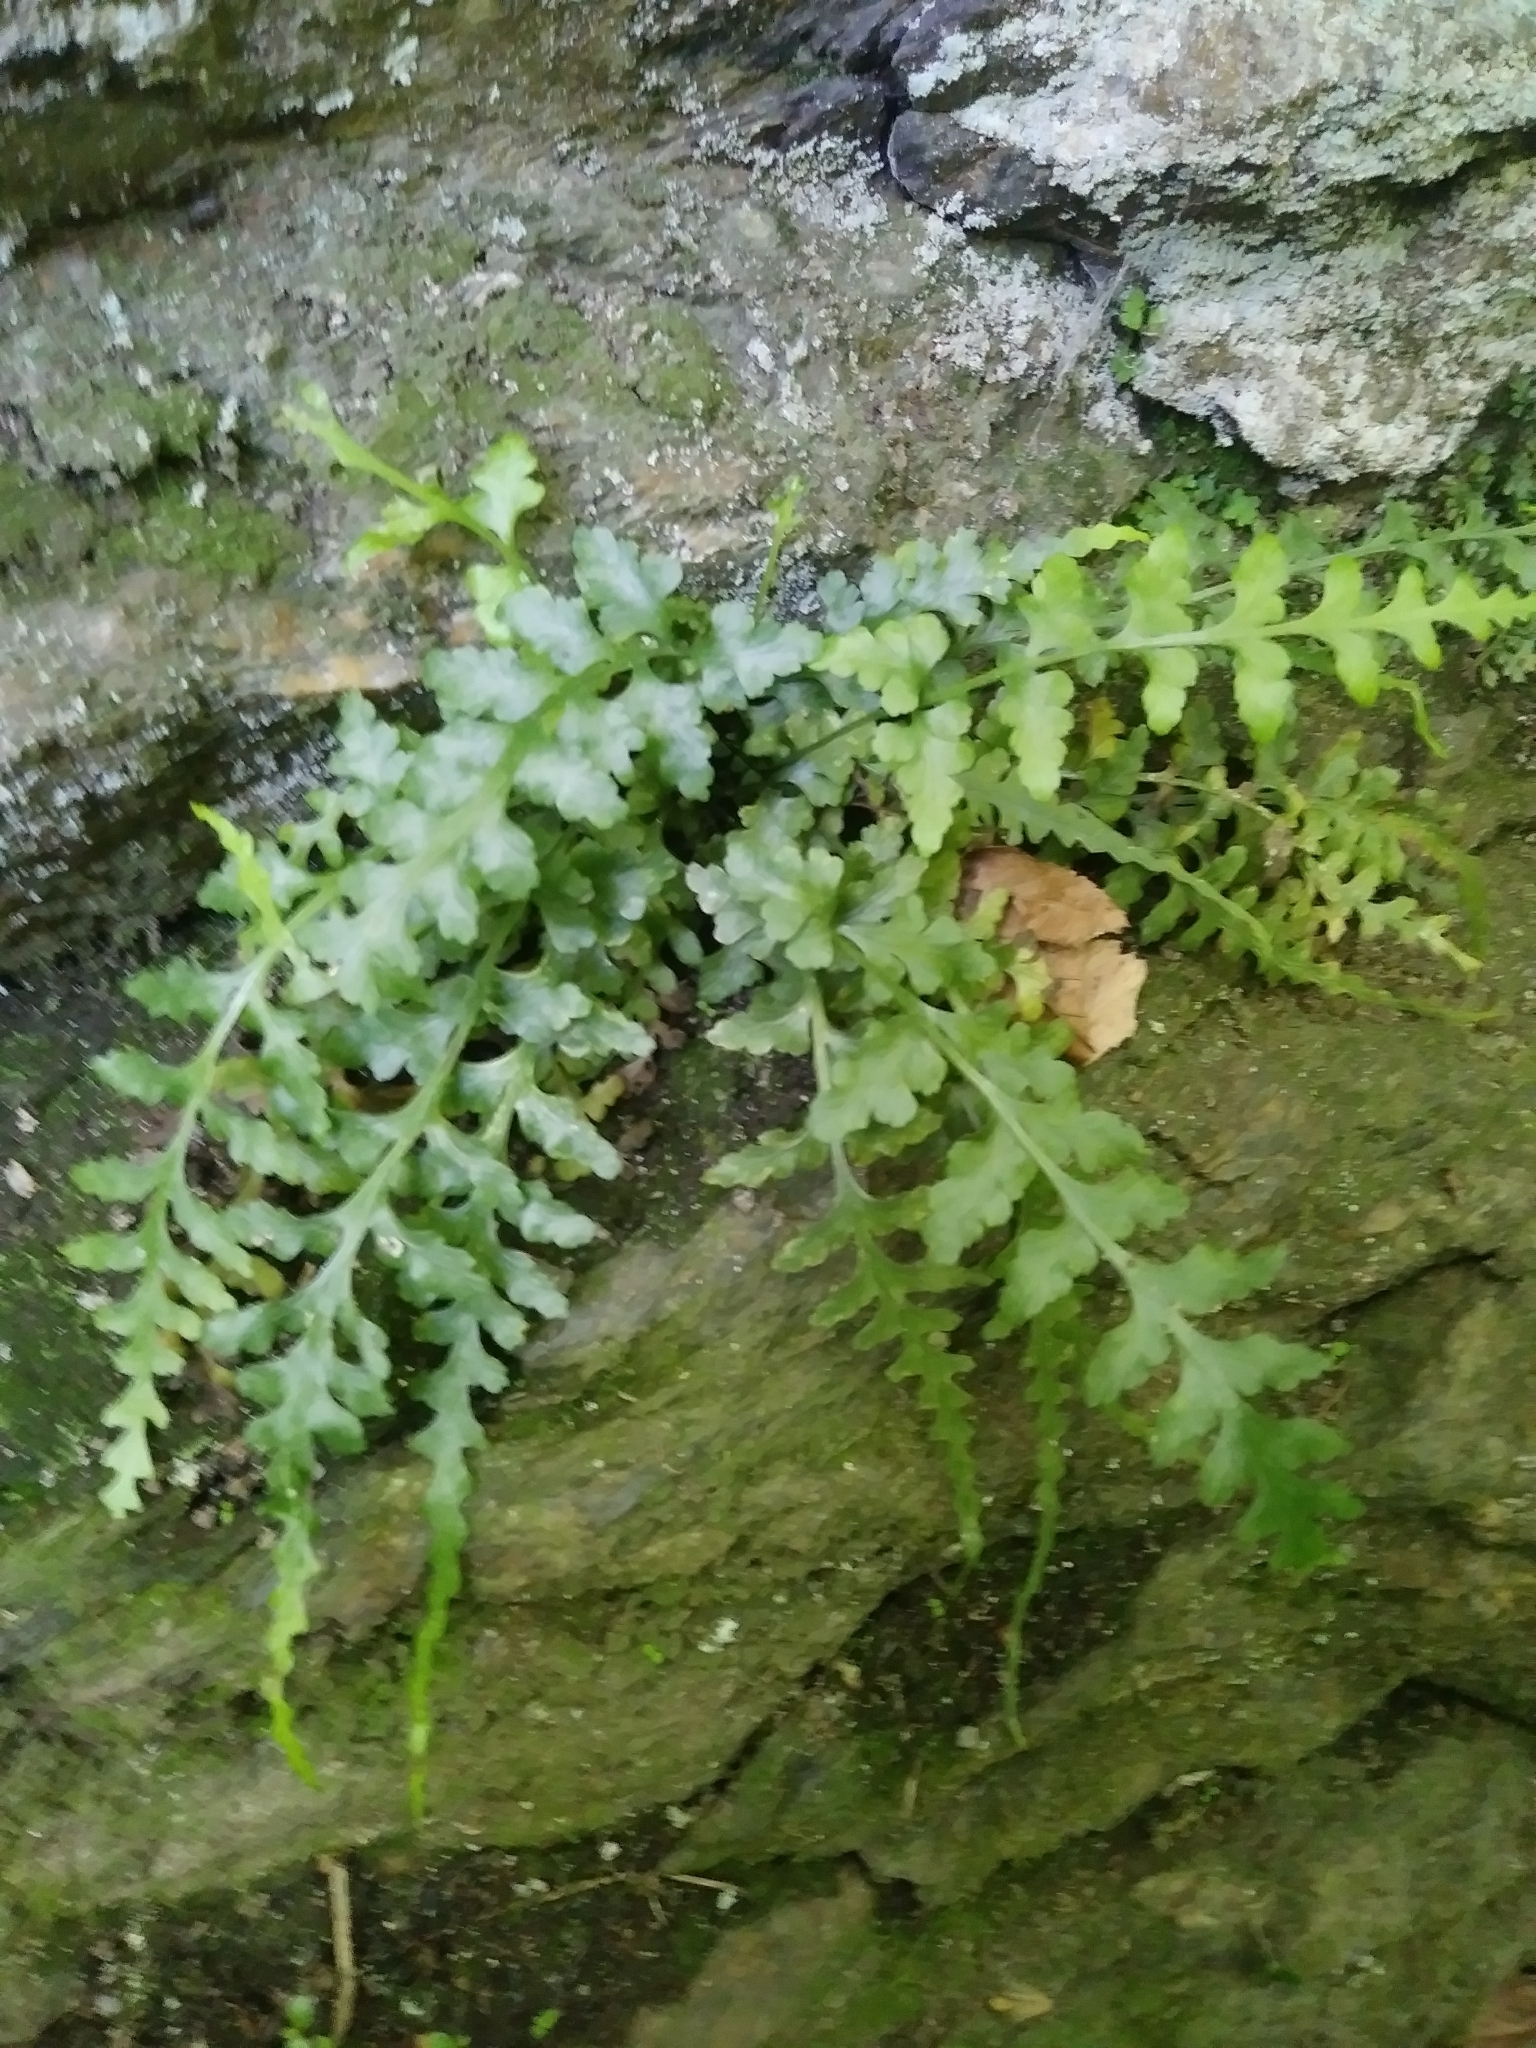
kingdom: Plantae
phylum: Tracheophyta
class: Polypodiopsida
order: Polypodiales
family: Aspleniaceae
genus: Asplenium
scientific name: Asplenium trudellii
